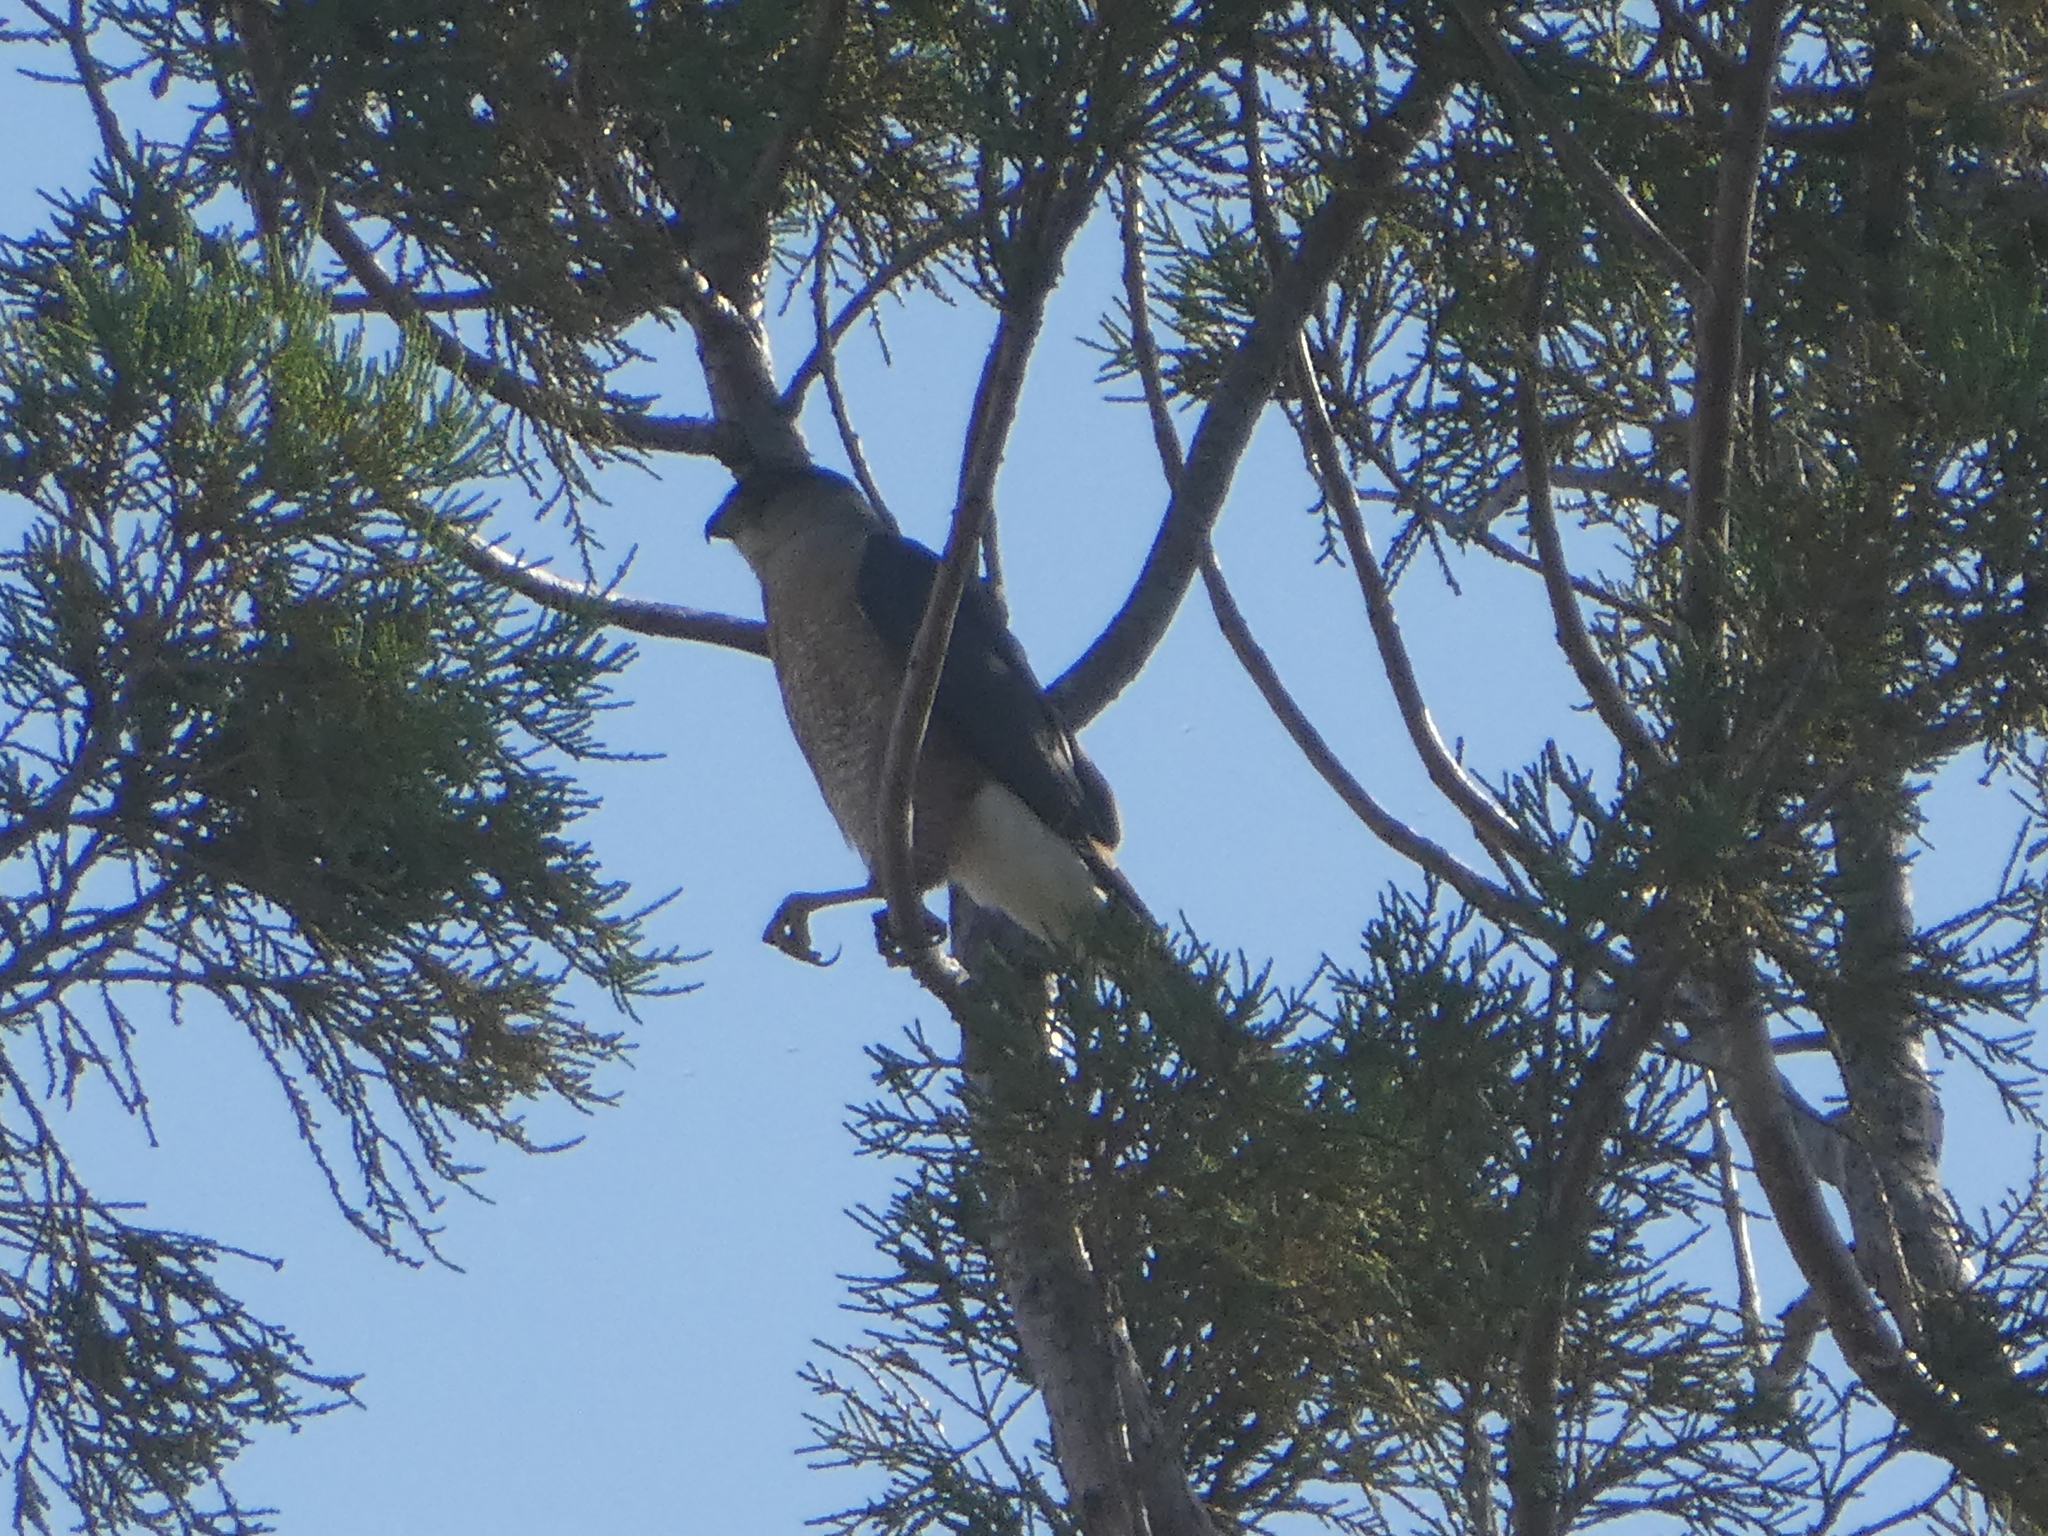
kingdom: Animalia
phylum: Chordata
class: Aves
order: Accipitriformes
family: Accipitridae
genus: Accipiter
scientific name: Accipiter cooperii
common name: Cooper's hawk
